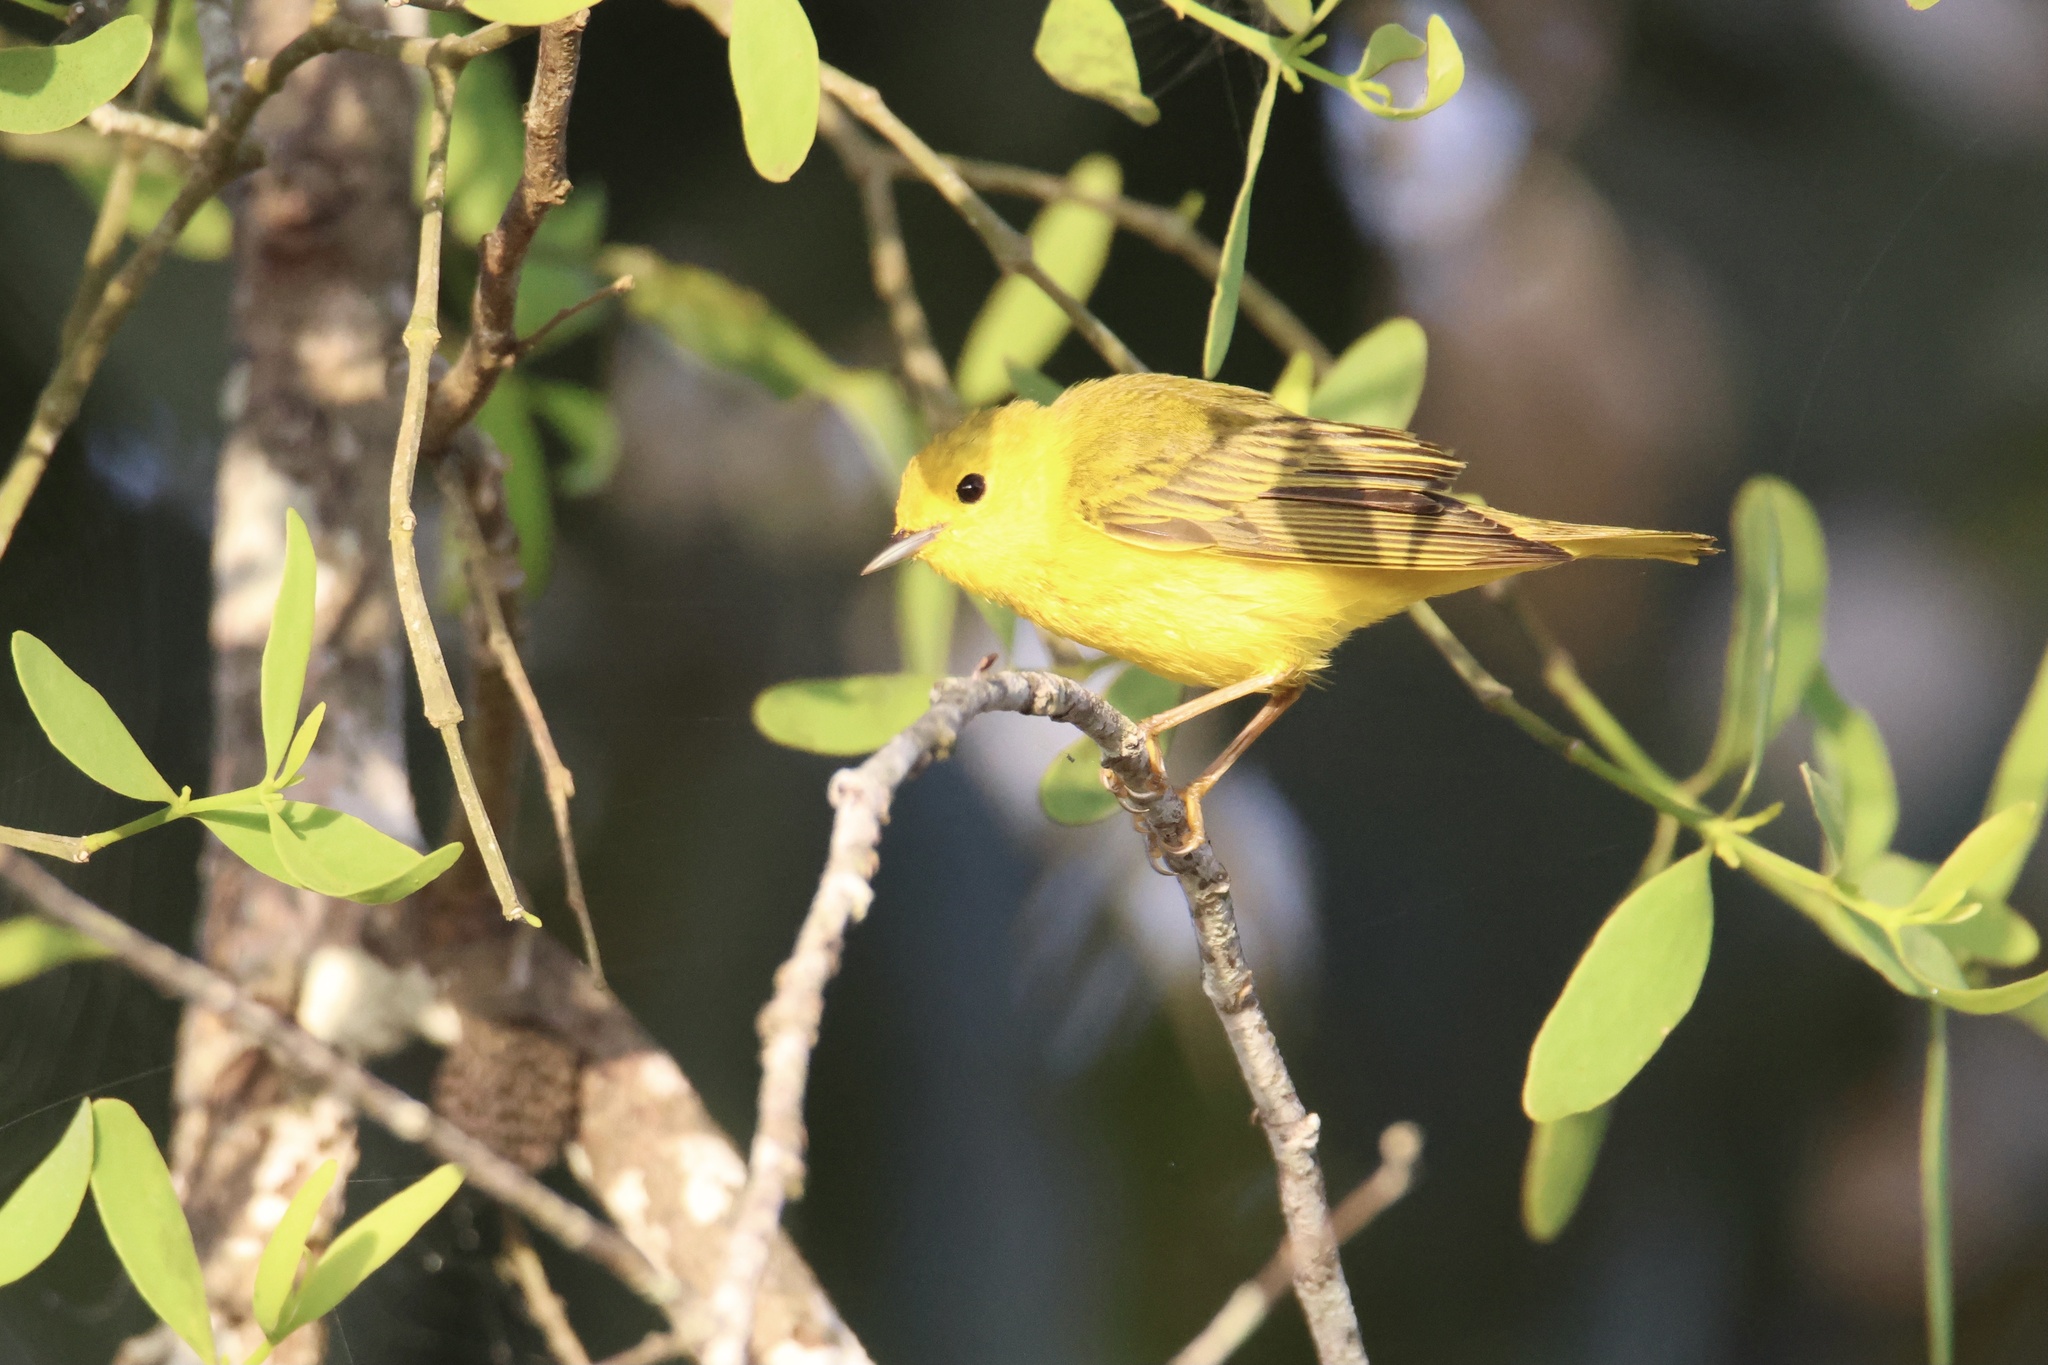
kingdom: Animalia
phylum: Chordata
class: Aves
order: Passeriformes
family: Parulidae
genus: Setophaga
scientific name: Setophaga petechia
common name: Yellow warbler
